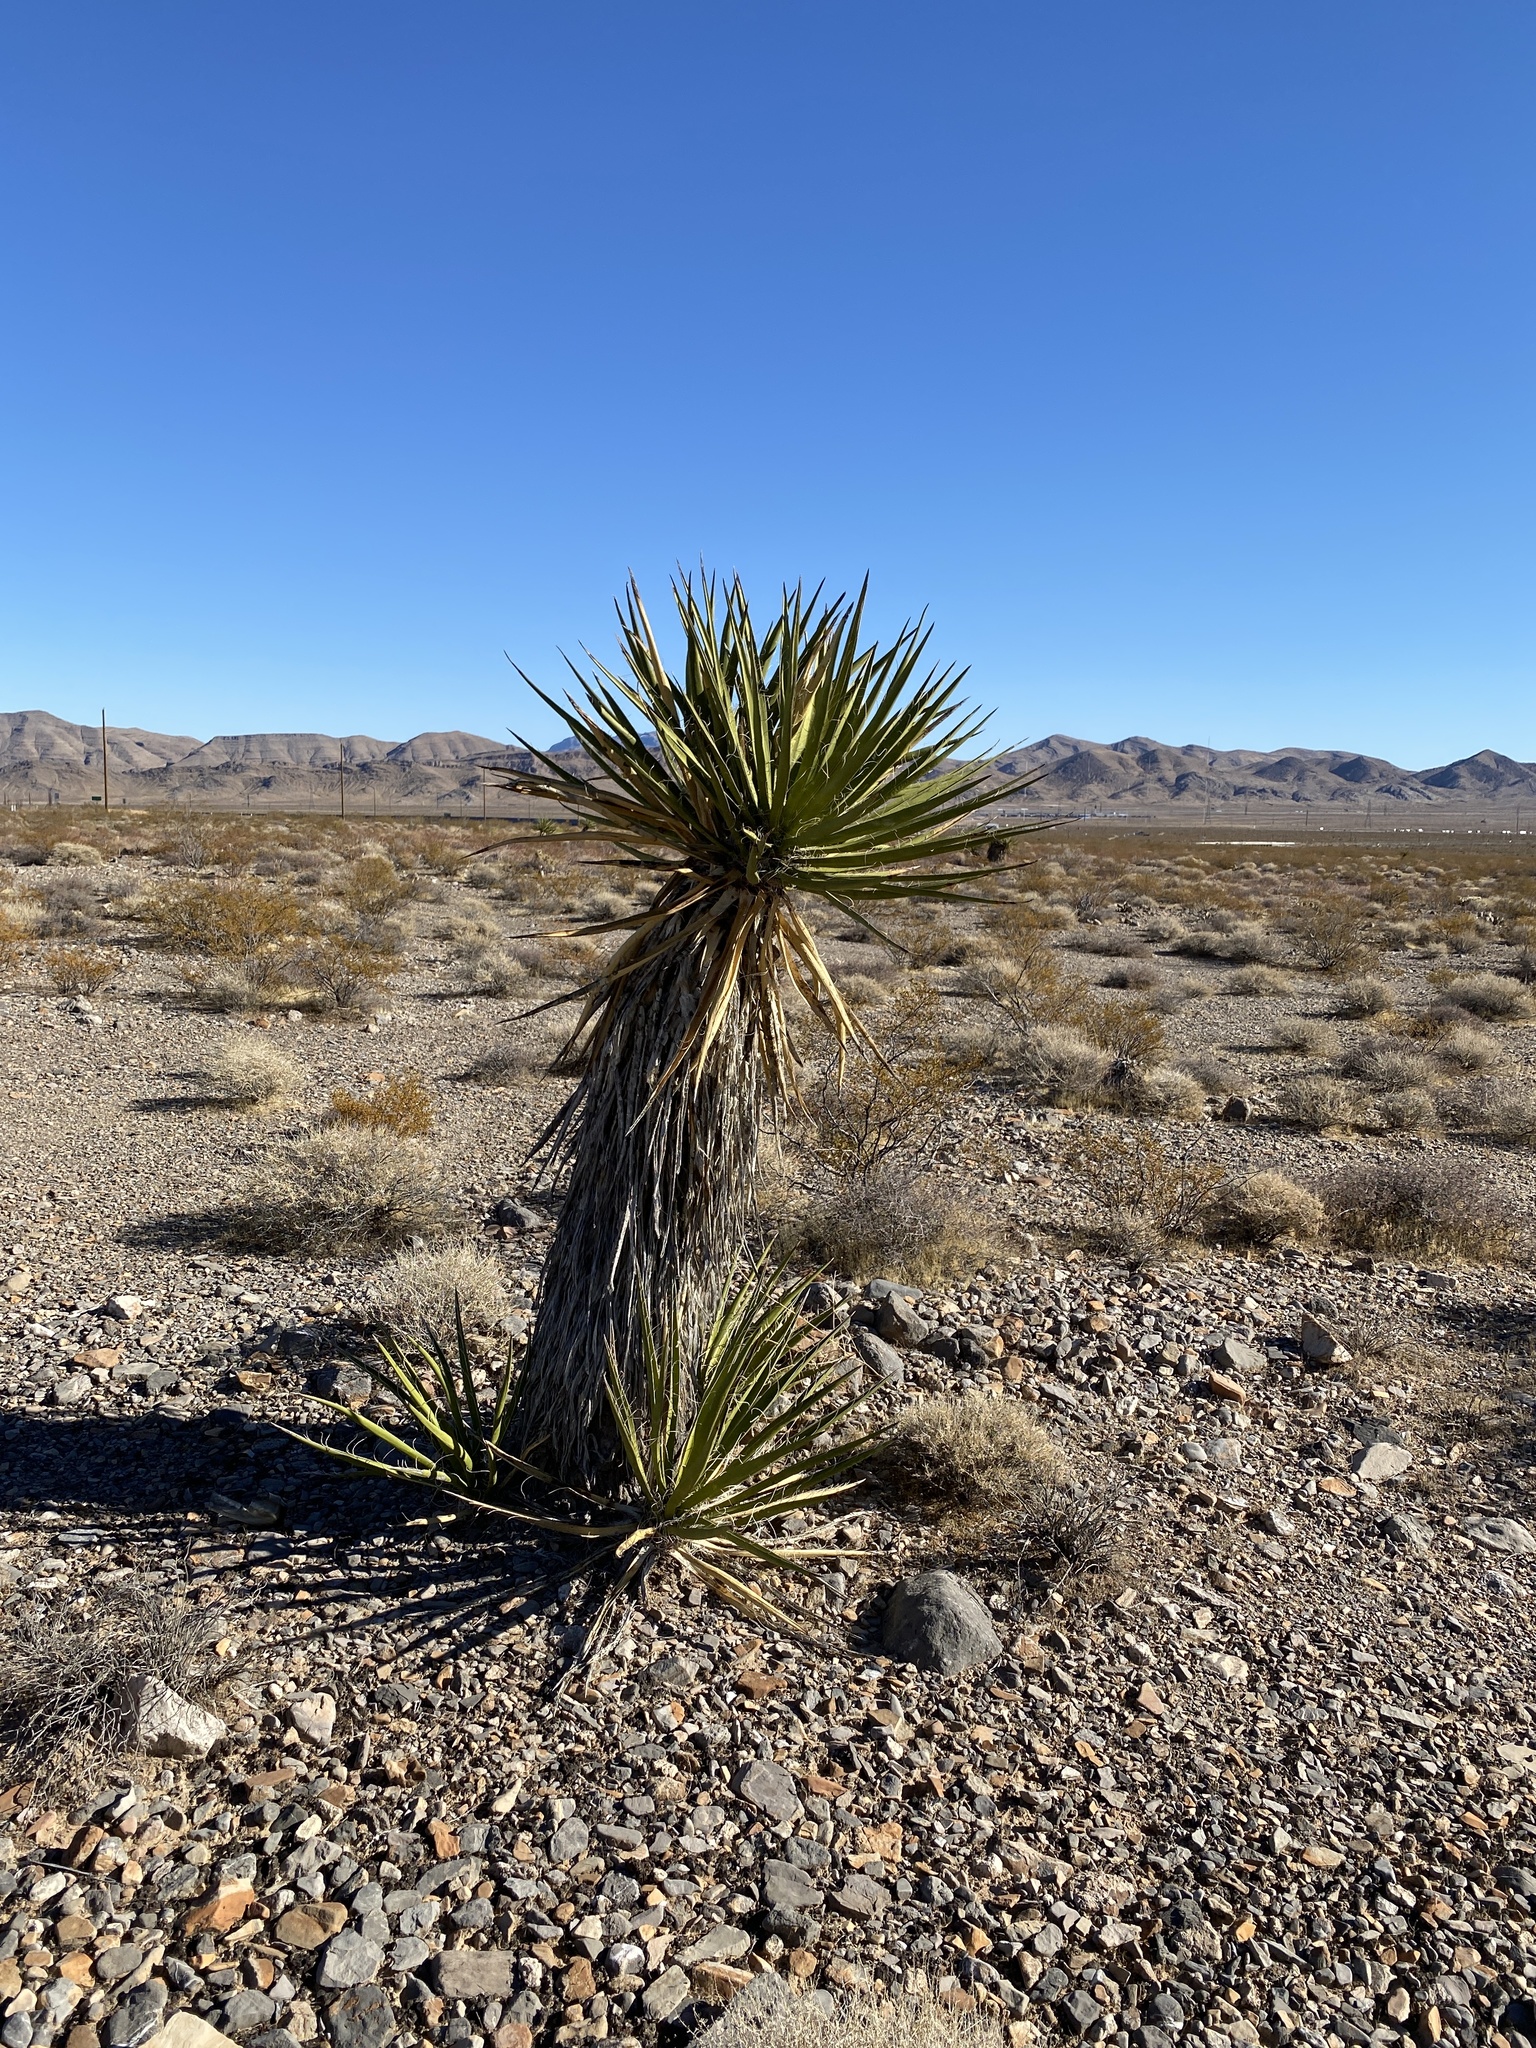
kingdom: Plantae
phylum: Tracheophyta
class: Liliopsida
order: Asparagales
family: Asparagaceae
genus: Yucca
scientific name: Yucca schidigera
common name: Mojave yucca
